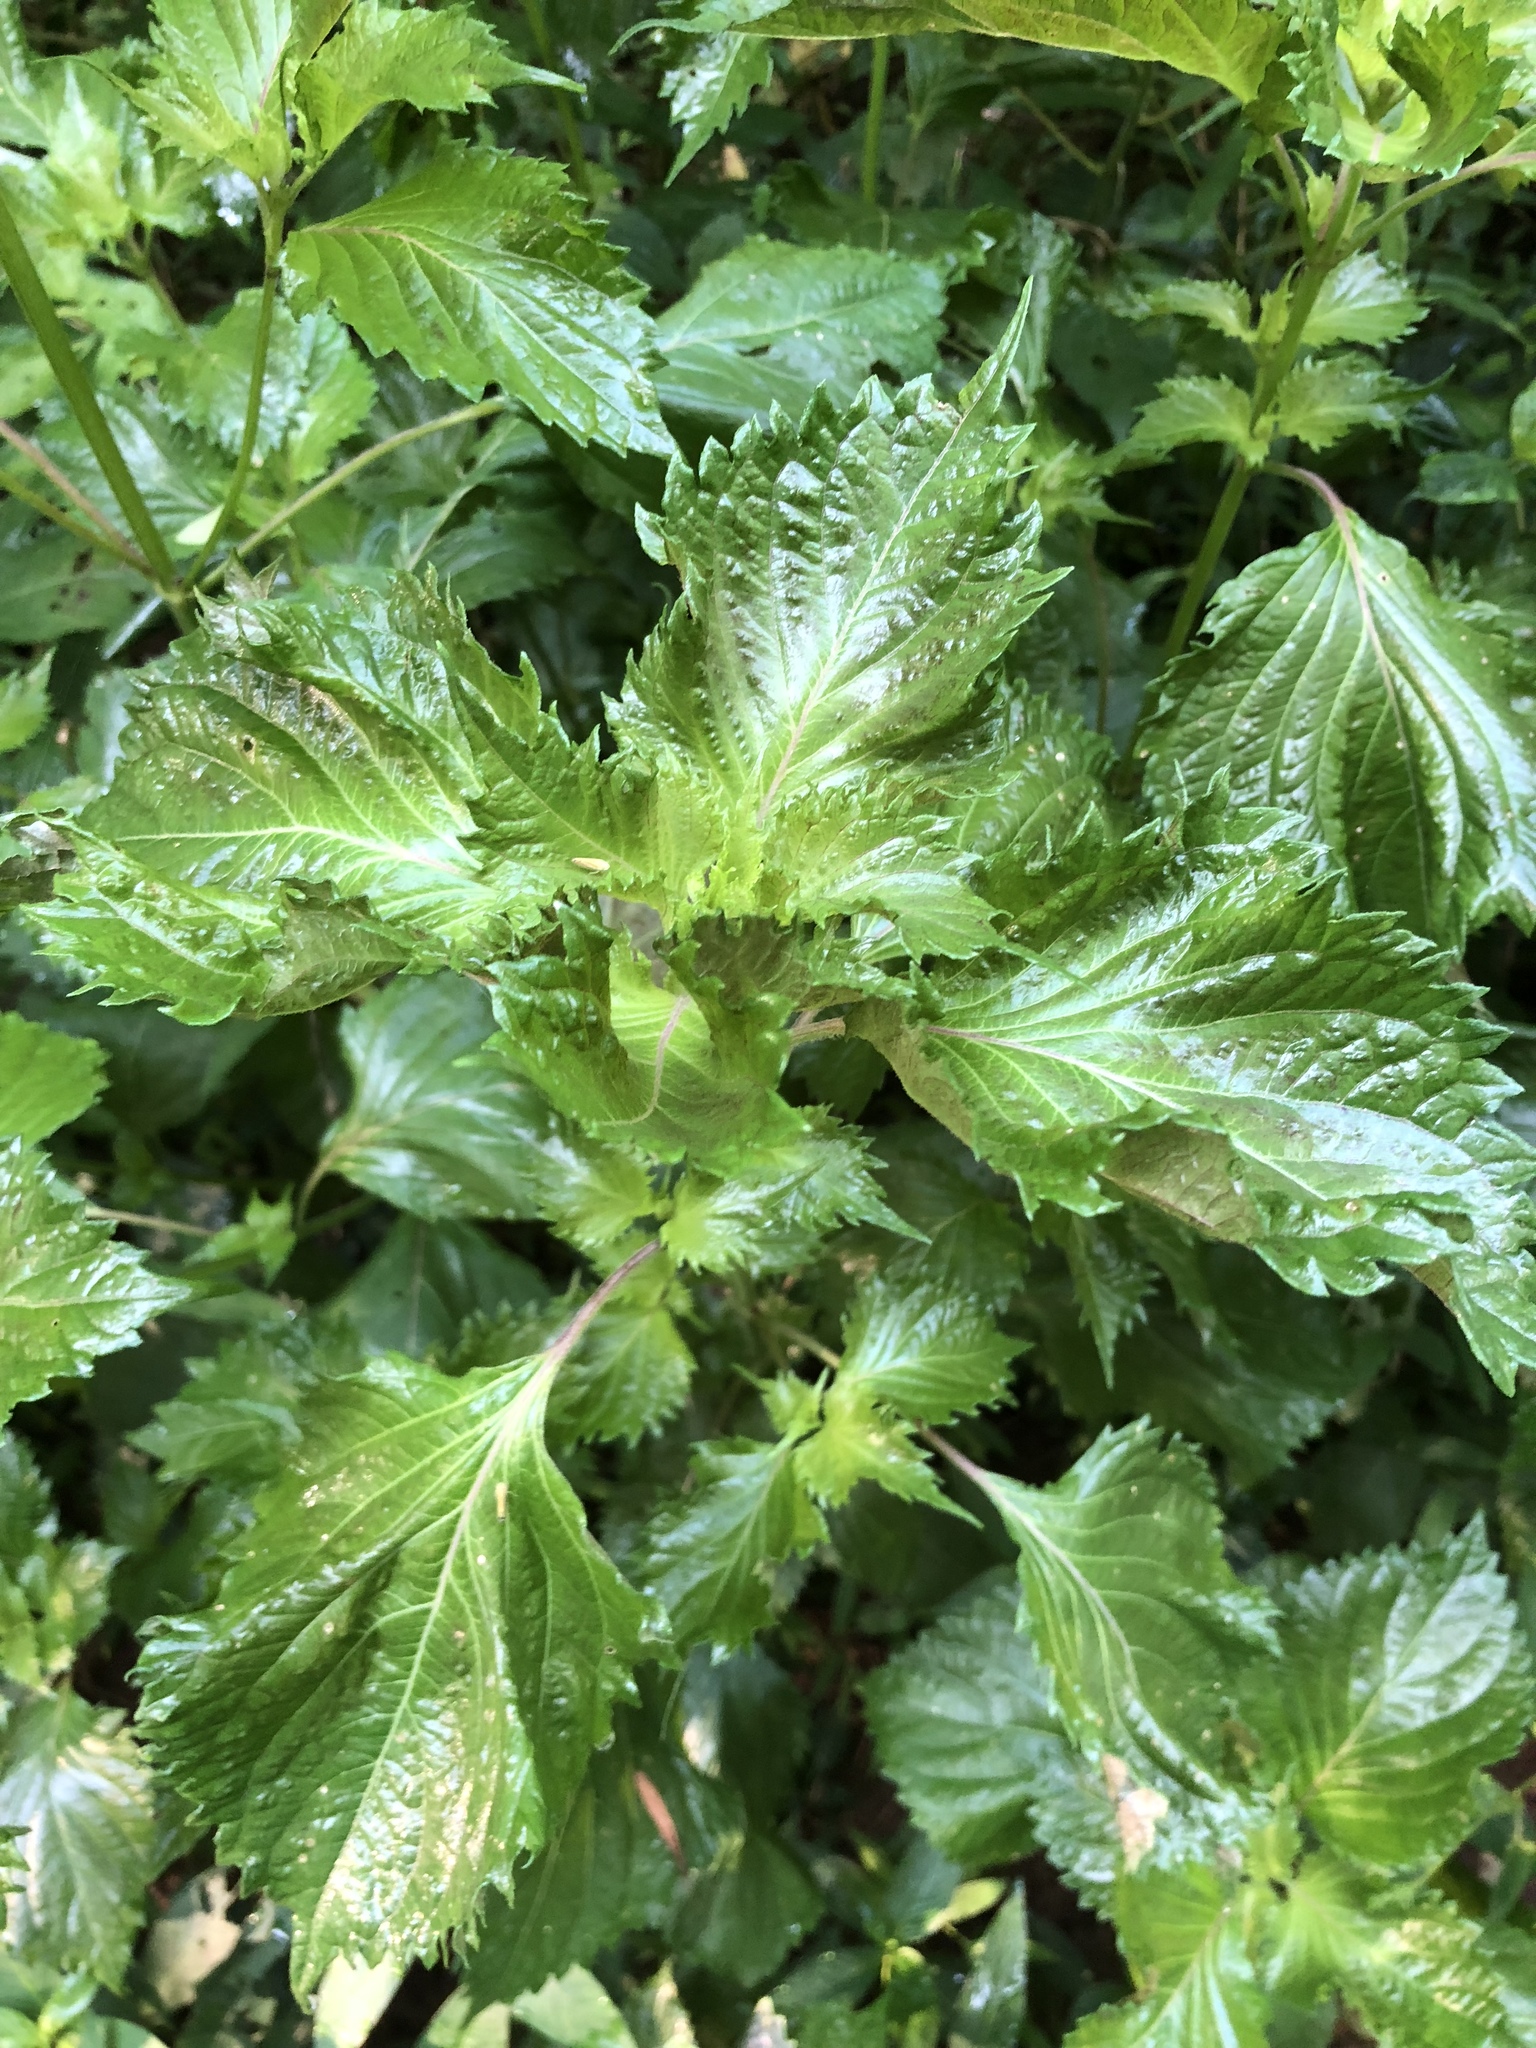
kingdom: Plantae
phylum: Tracheophyta
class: Magnoliopsida
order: Lamiales
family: Lamiaceae
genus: Perilla
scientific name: Perilla frutescens
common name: Perilla
